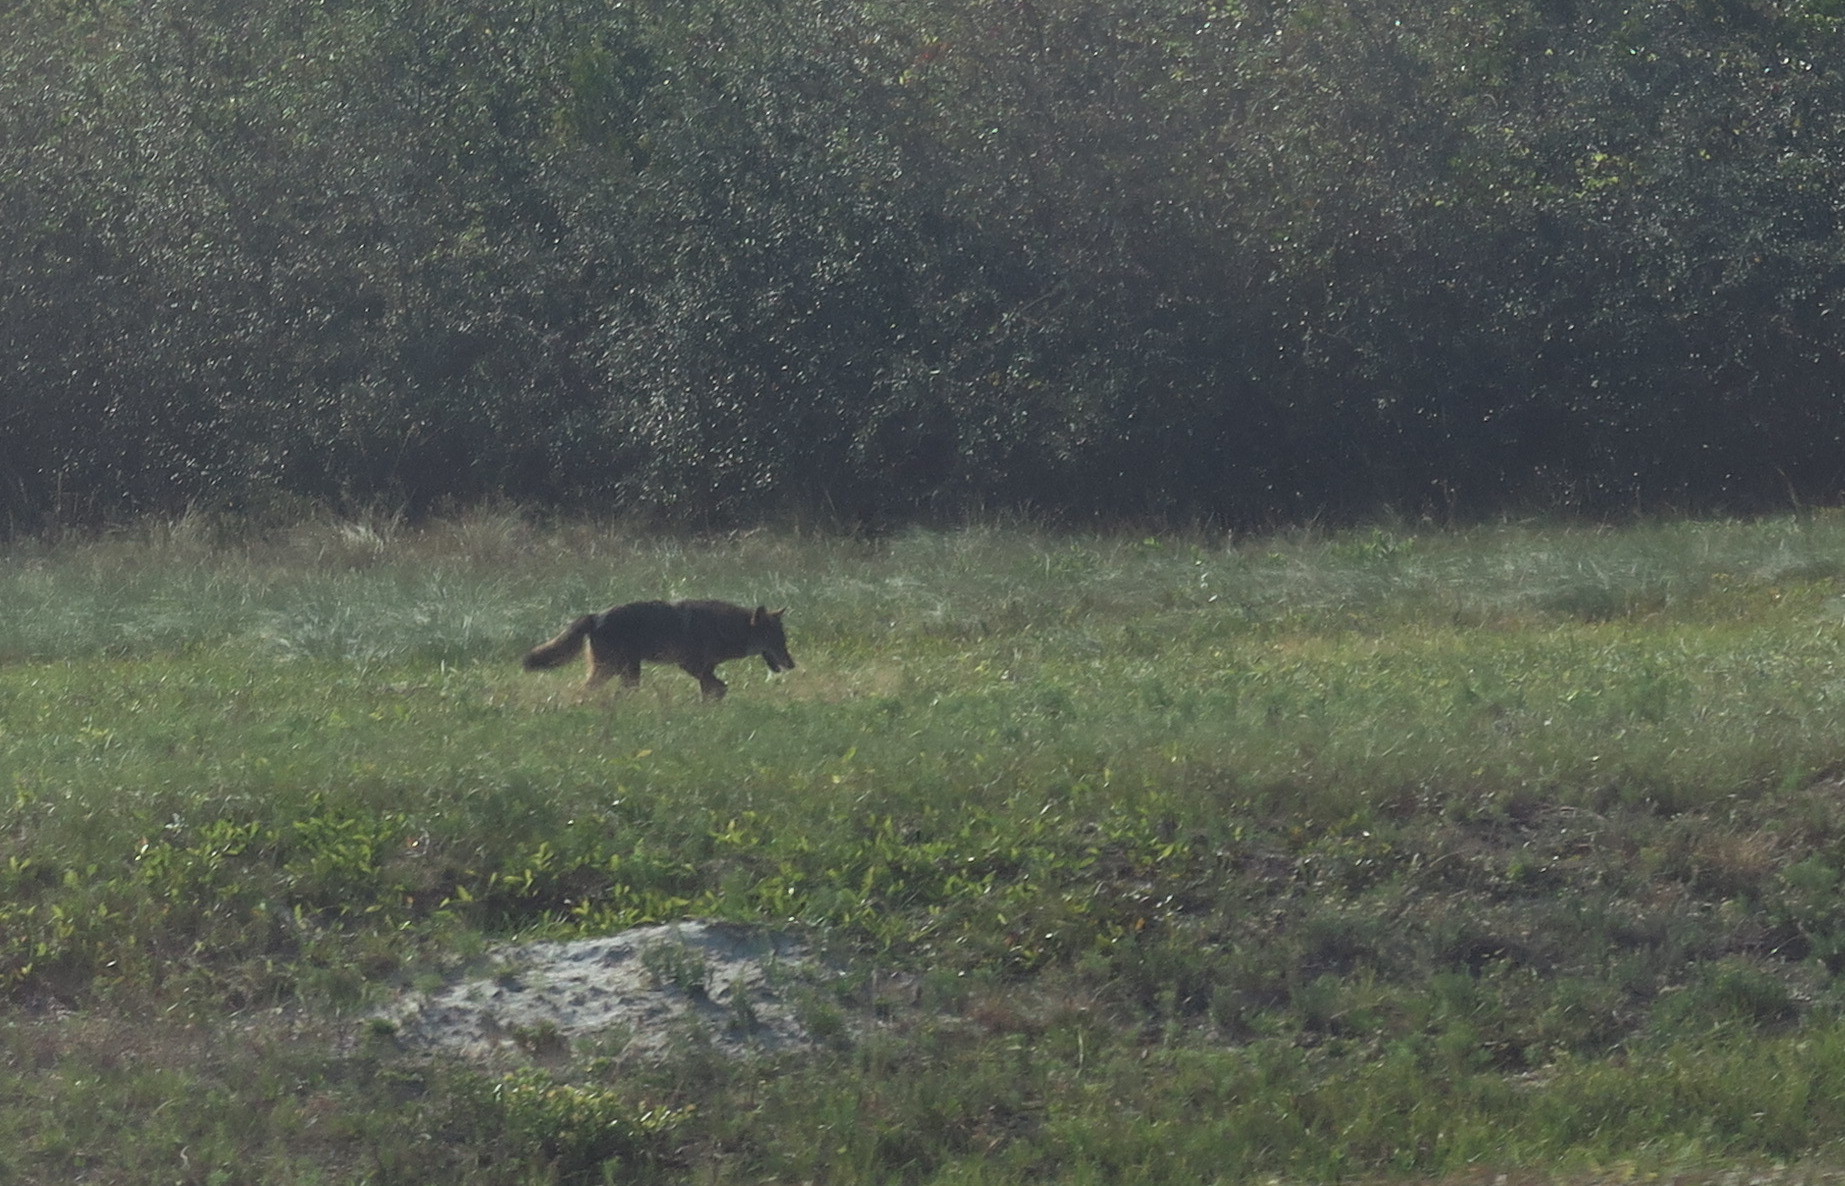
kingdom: Animalia
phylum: Chordata
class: Mammalia
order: Carnivora
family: Canidae
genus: Canis
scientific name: Canis latrans
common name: Coyote
